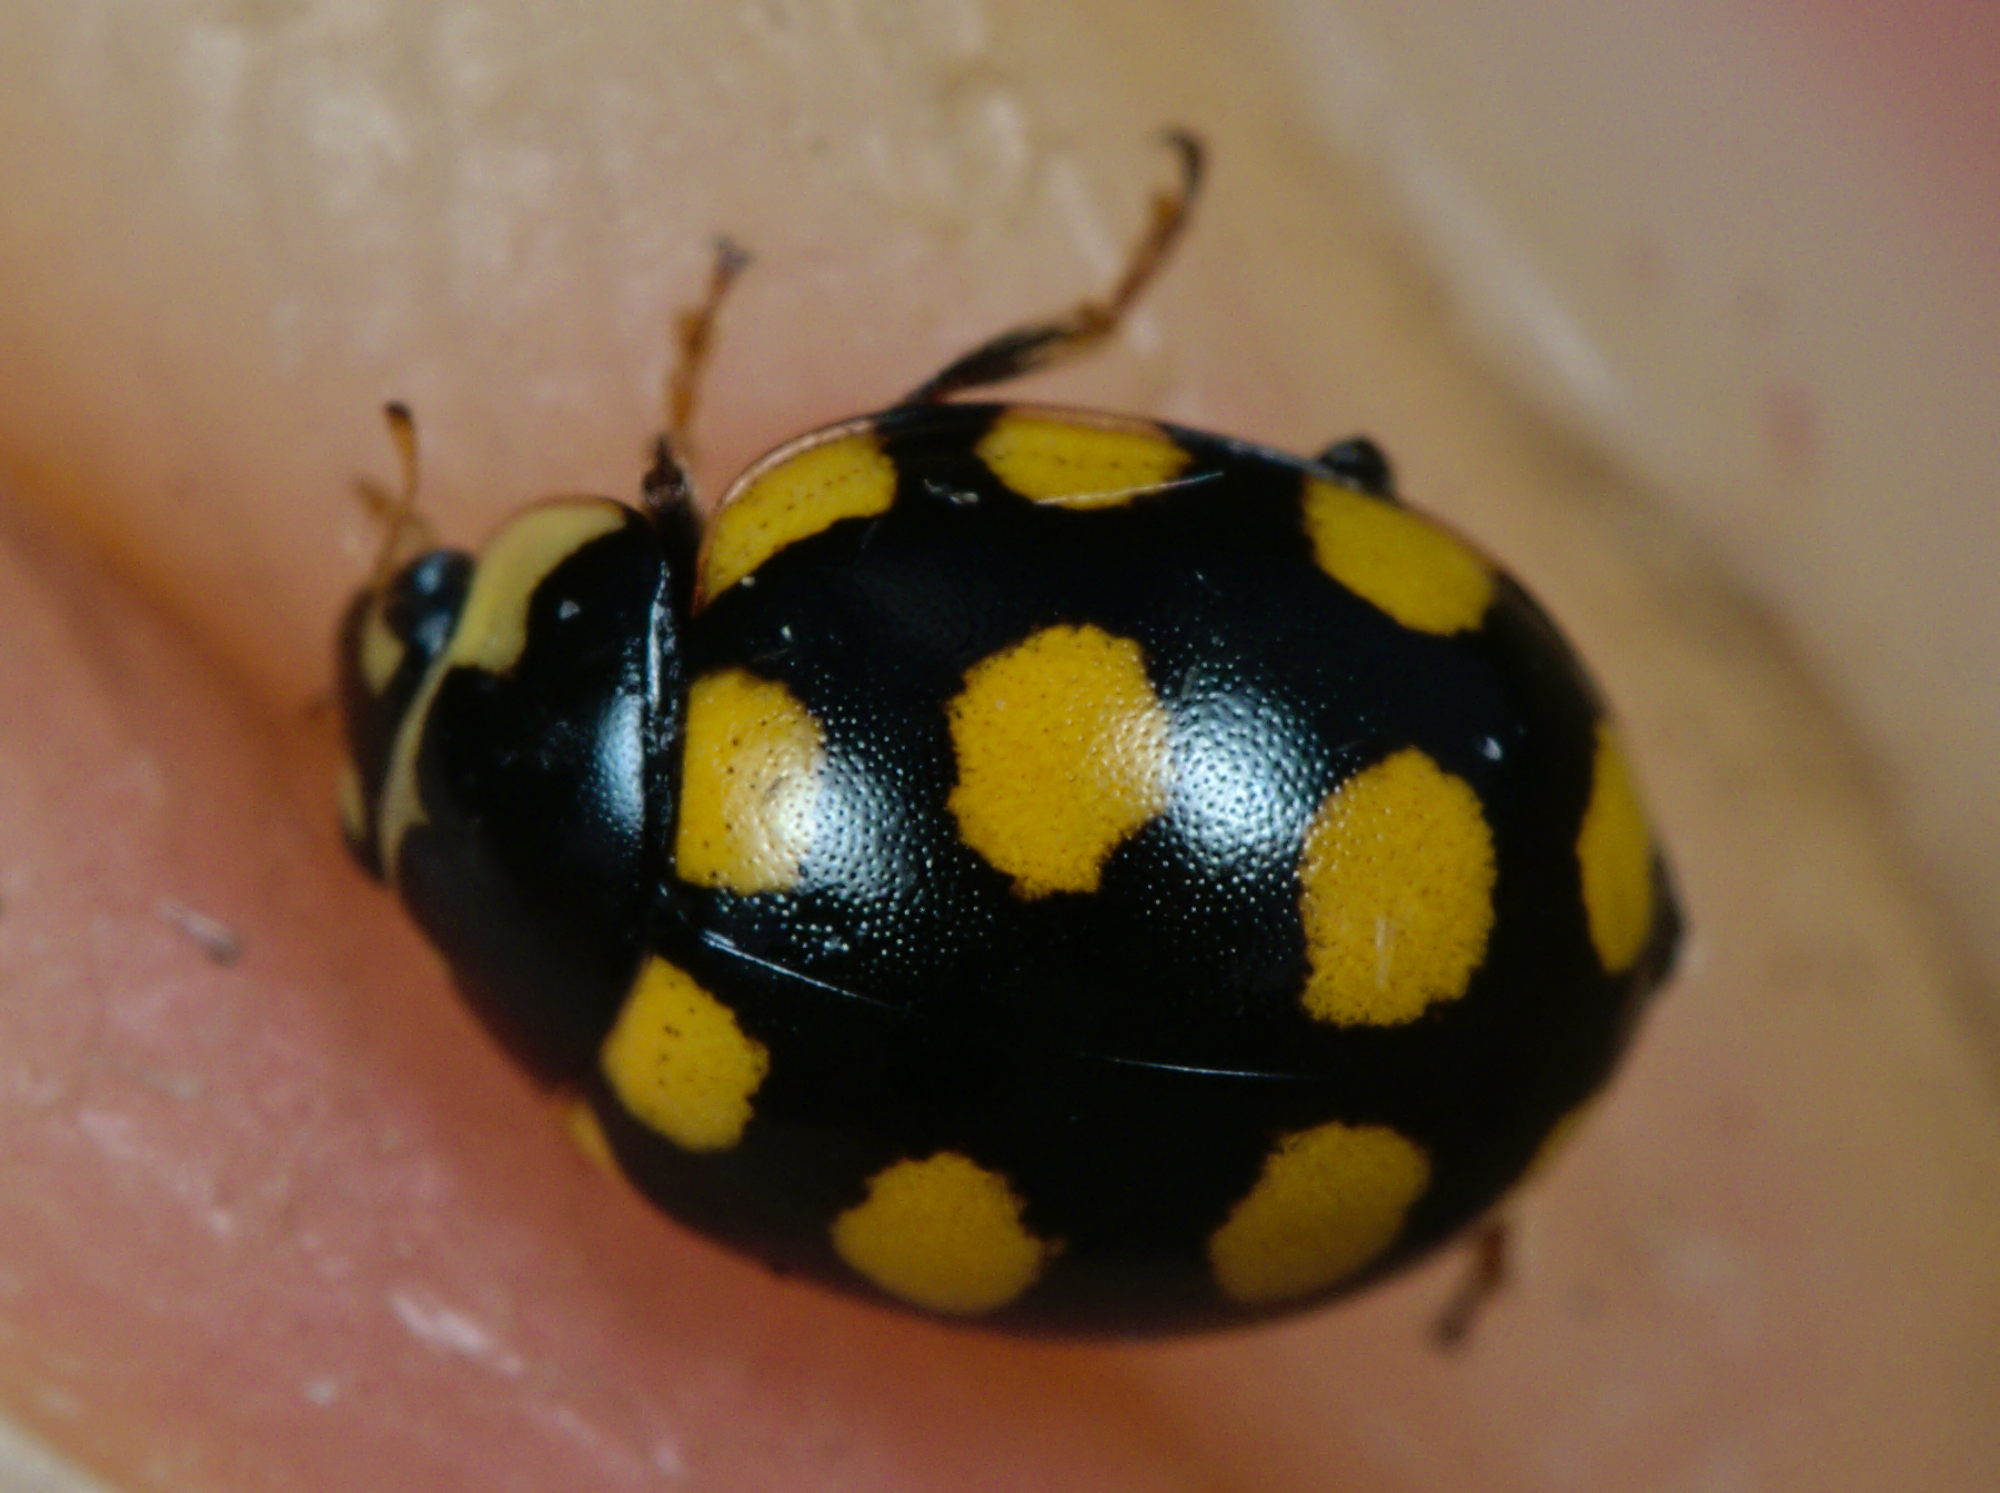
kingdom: Animalia
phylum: Arthropoda
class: Insecta
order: Coleoptera
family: Coccinellidae
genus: Coccinula
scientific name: Coccinula quatuordecimpustulata
